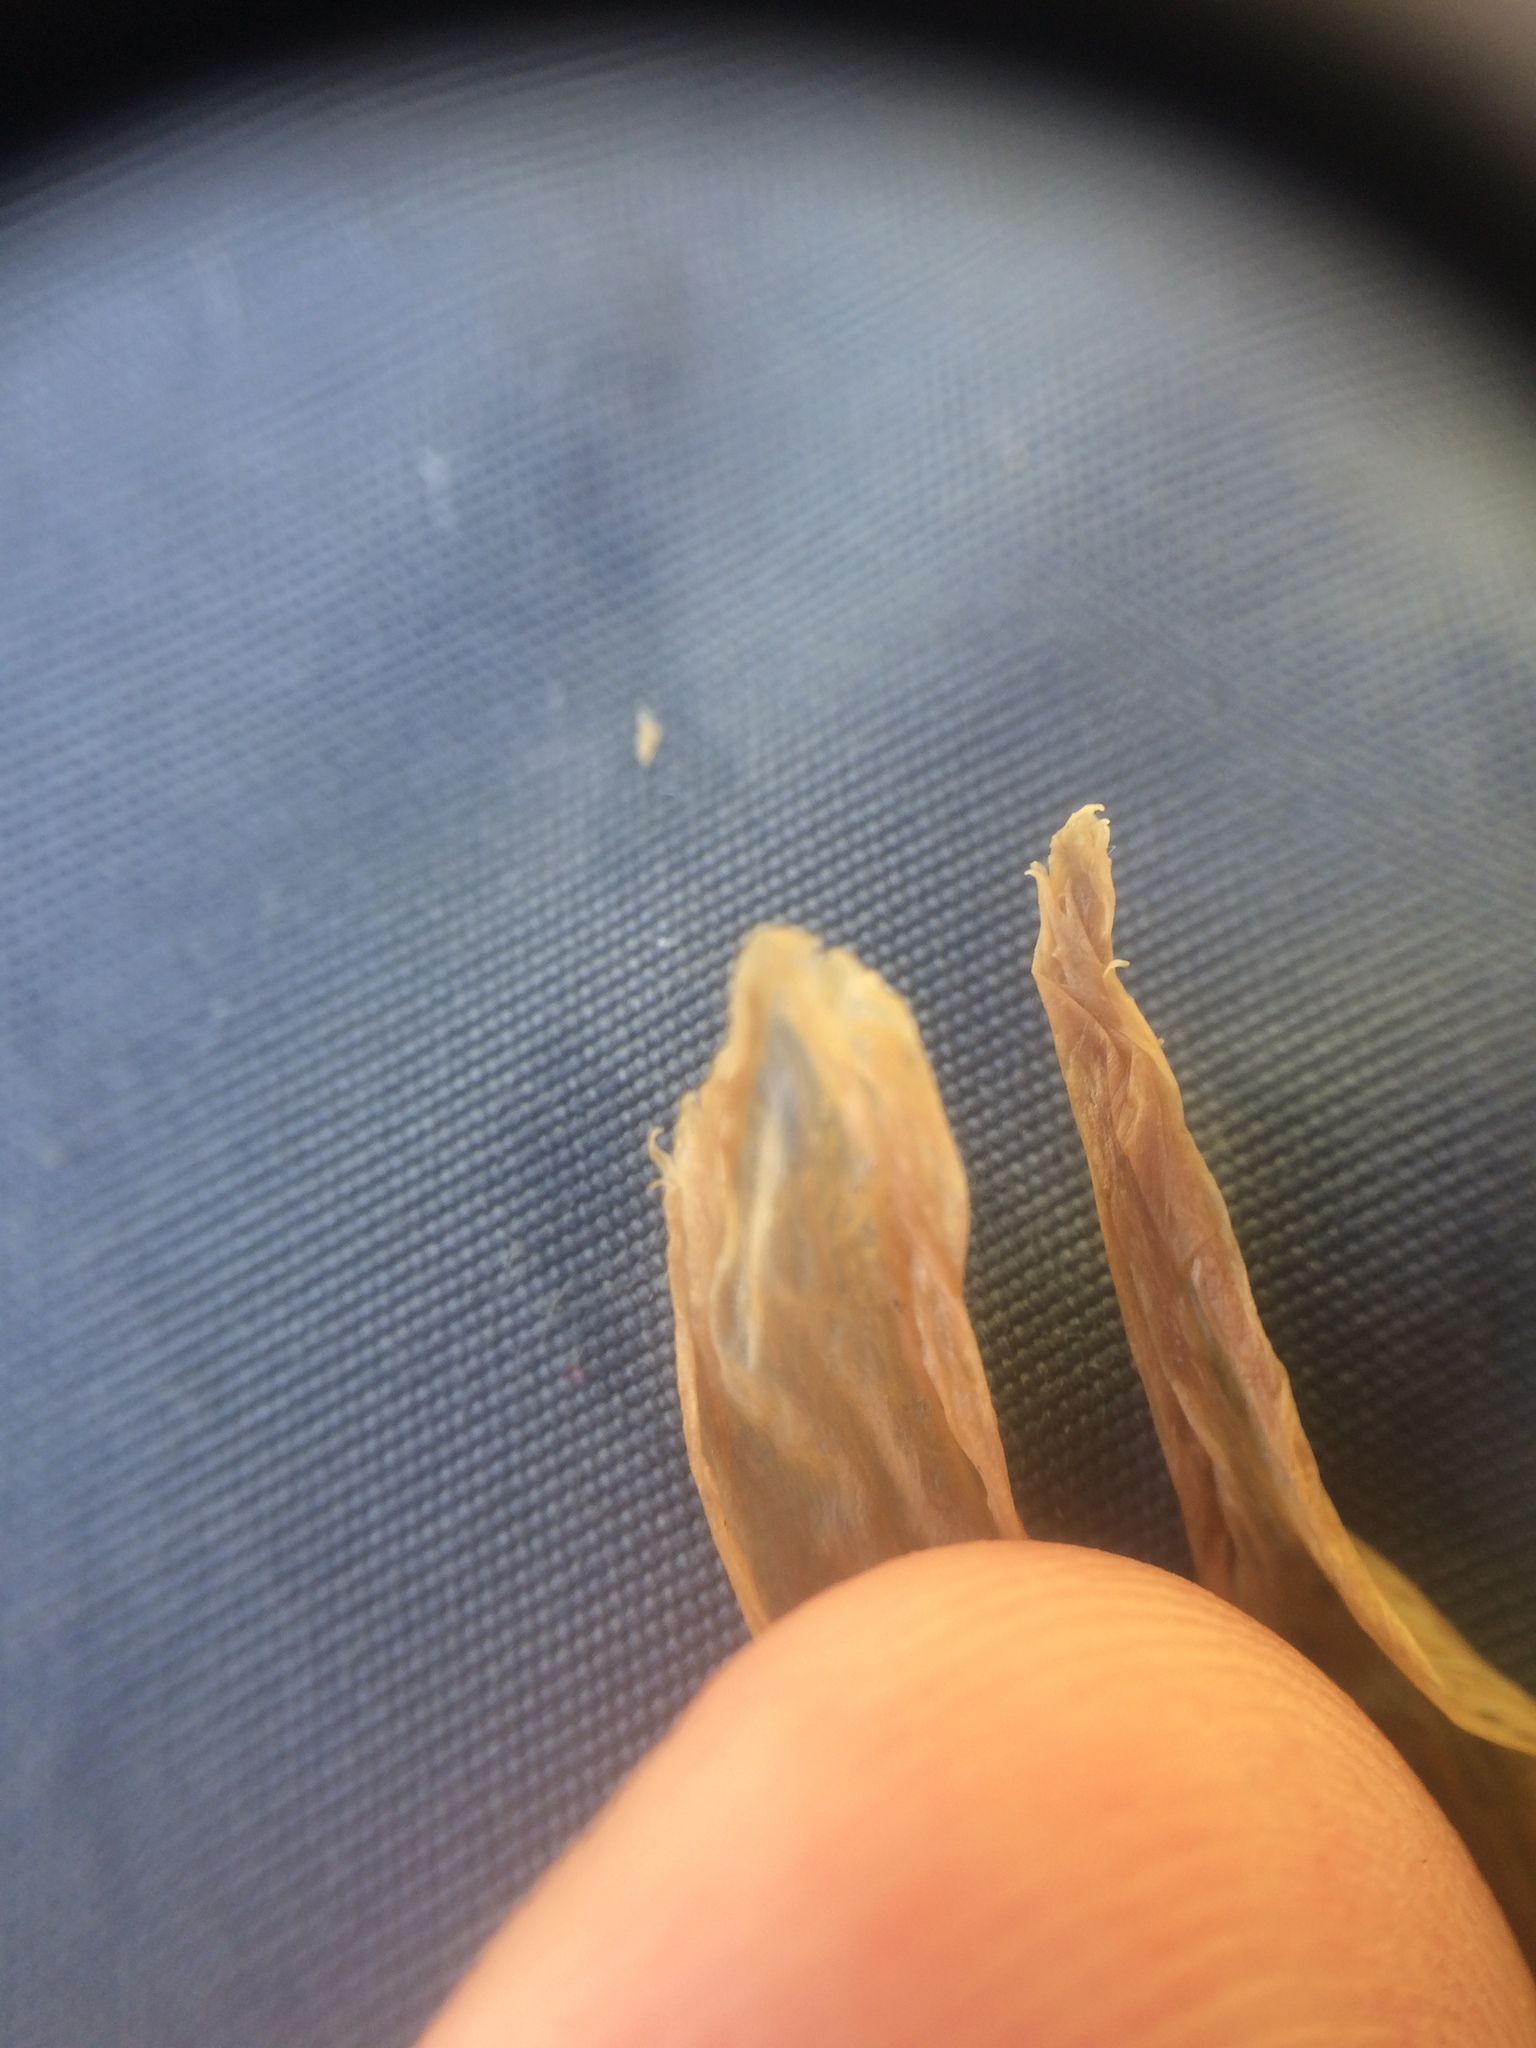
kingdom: Plantae
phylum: Tracheophyta
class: Magnoliopsida
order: Gentianales
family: Gentianaceae
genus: Gentianopsis
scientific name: Gentianopsis victorinii
